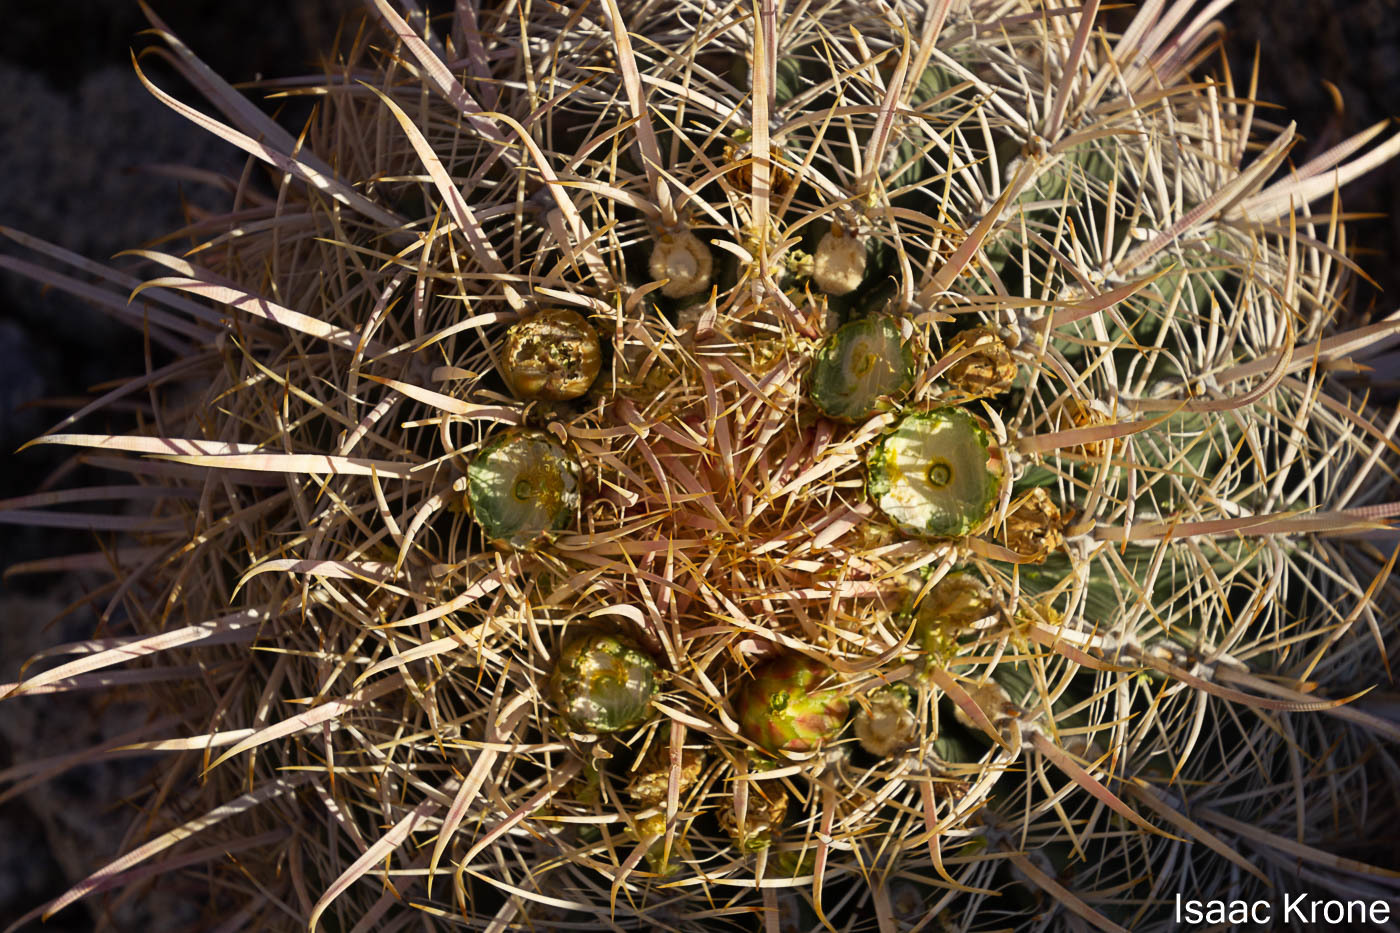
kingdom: Plantae
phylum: Tracheophyta
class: Magnoliopsida
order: Caryophyllales
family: Cactaceae
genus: Ferocactus
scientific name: Ferocactus cylindraceus
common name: California barrel cactus
